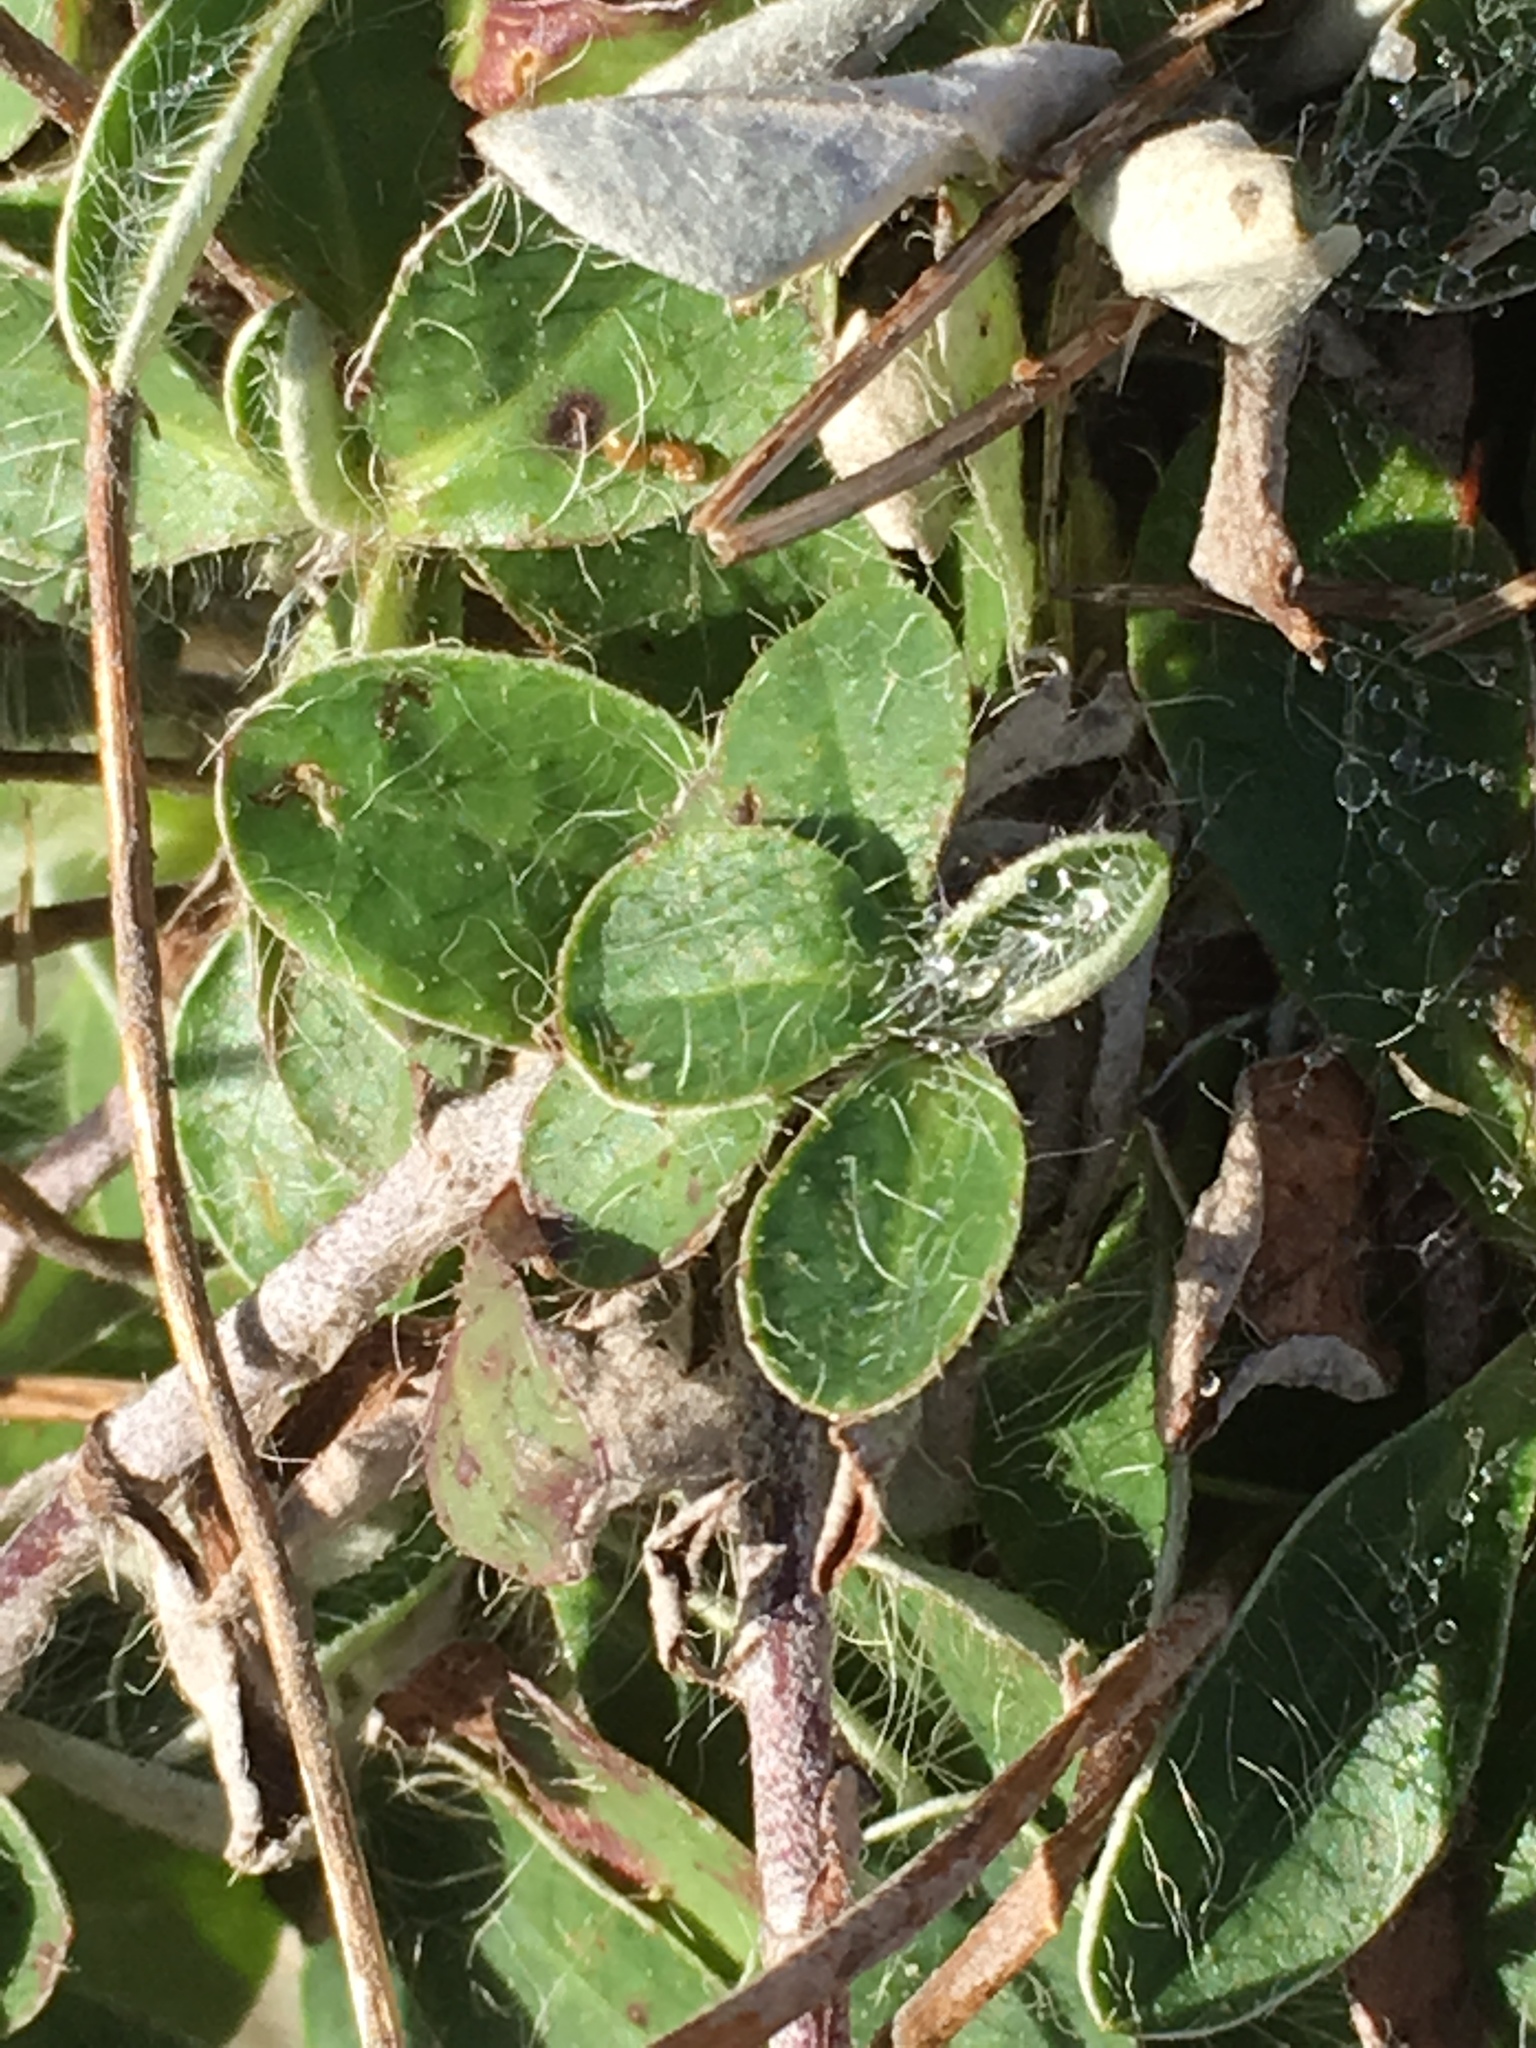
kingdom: Plantae
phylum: Tracheophyta
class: Magnoliopsida
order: Asterales
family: Asteraceae
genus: Pilosella
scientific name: Pilosella officinarum
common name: Mouse-ear hawkweed
